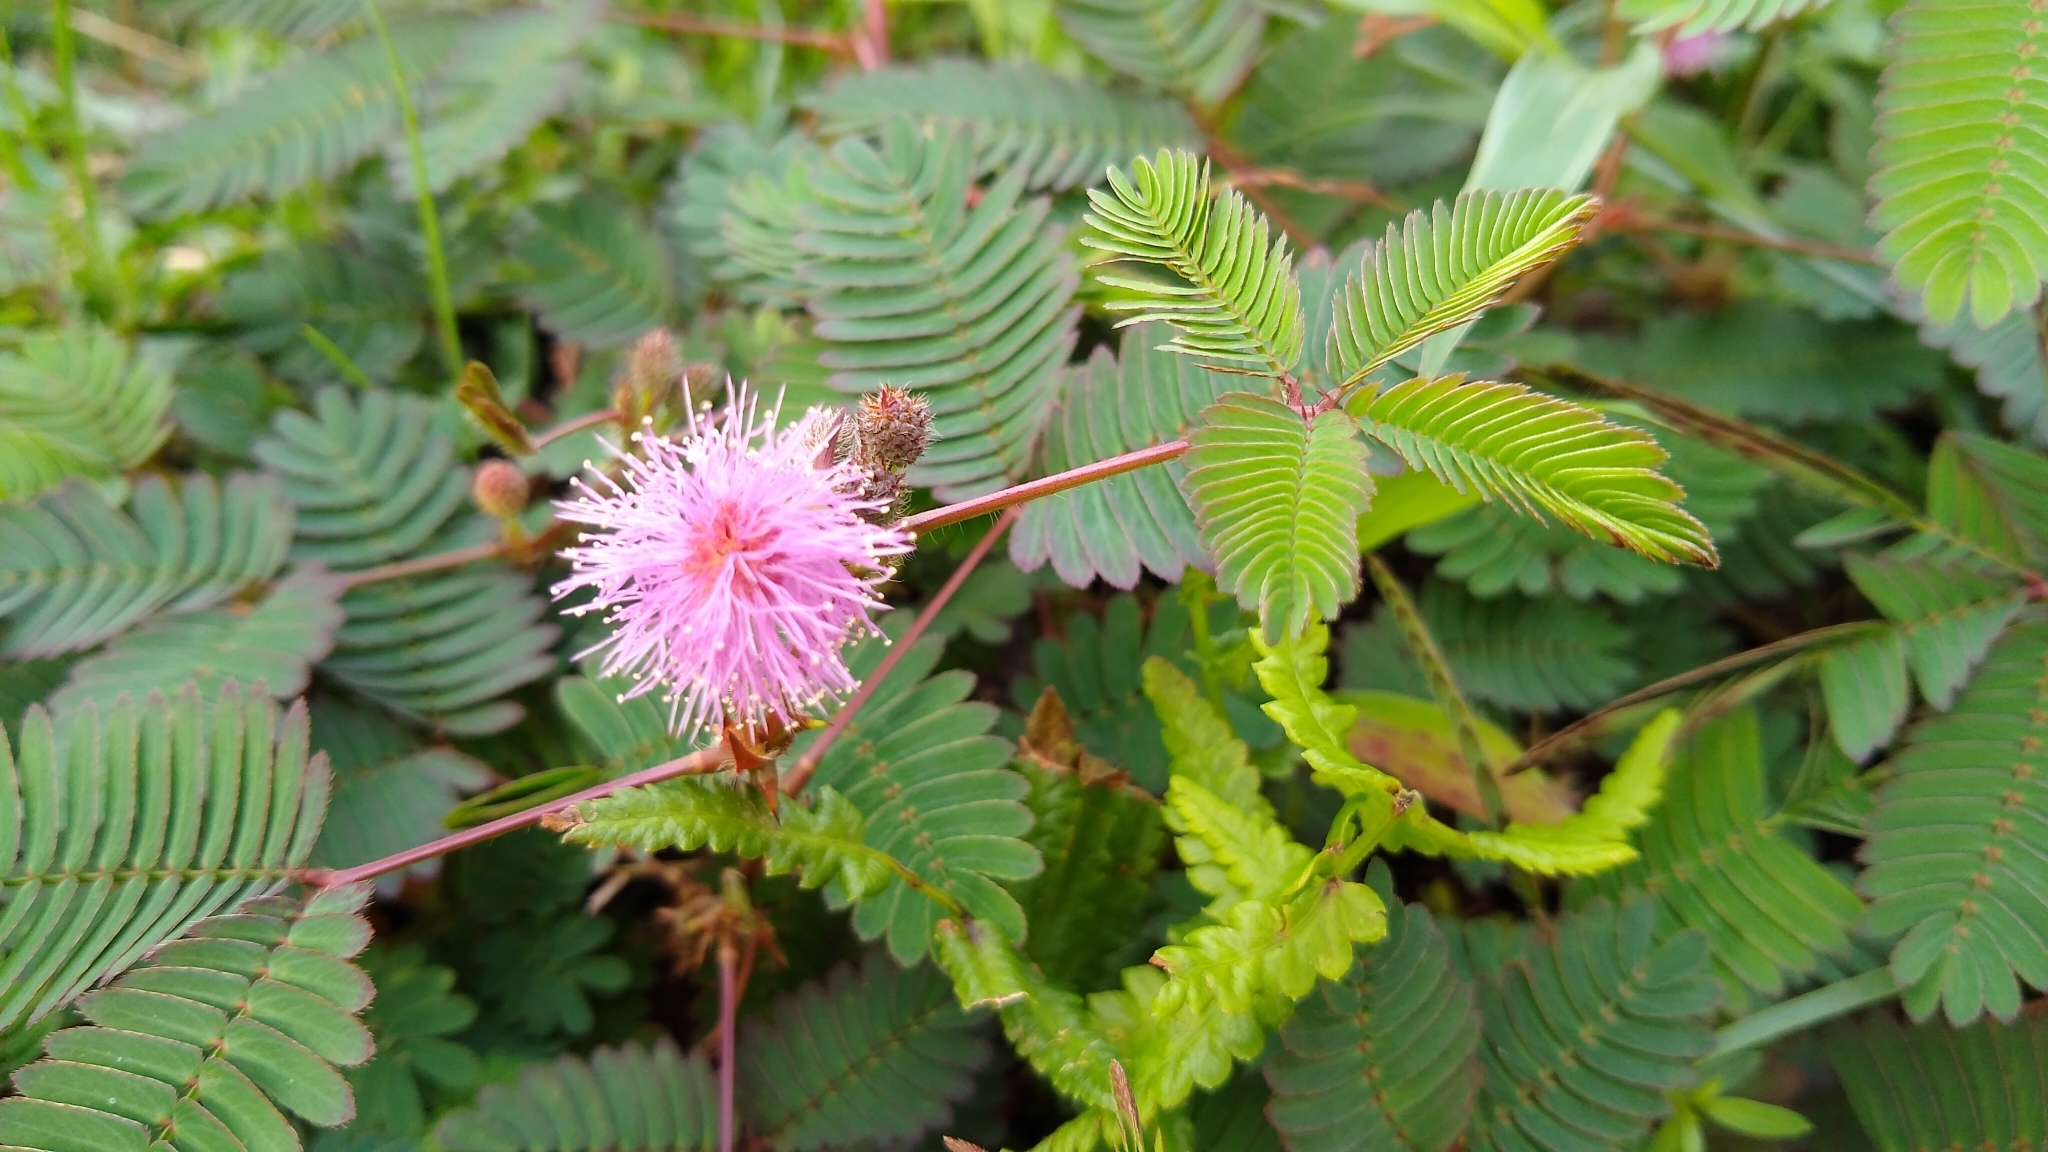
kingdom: Plantae
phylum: Tracheophyta
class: Magnoliopsida
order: Fabales
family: Fabaceae
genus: Mimosa
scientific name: Mimosa pudica
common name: Sensitive plant
